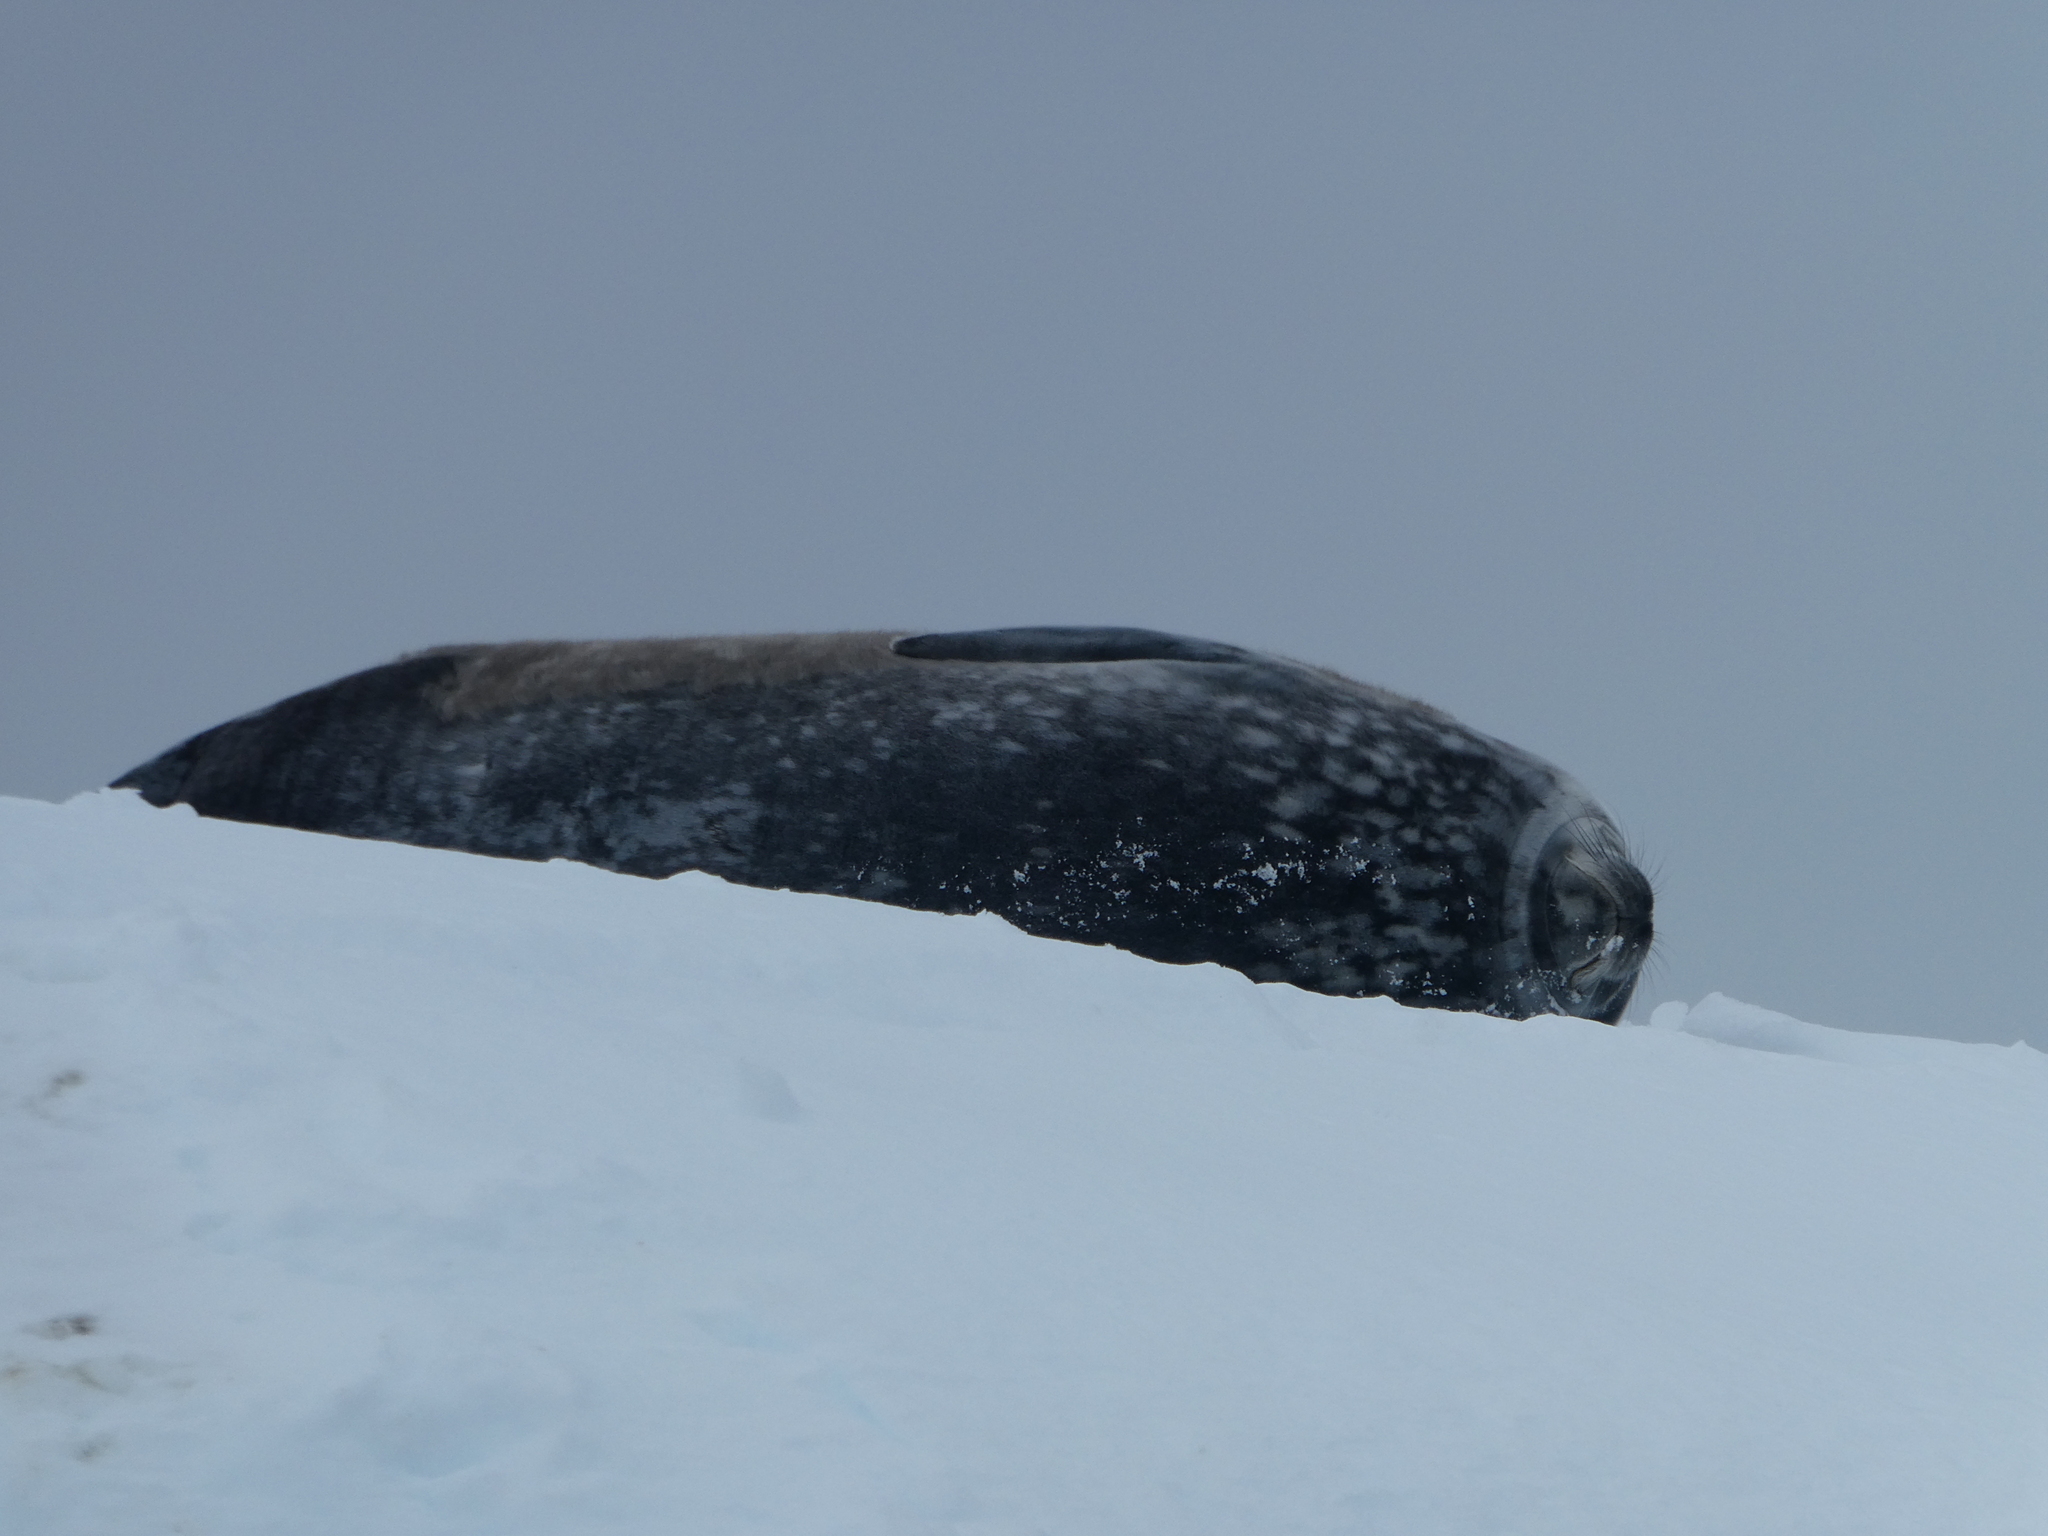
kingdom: Animalia
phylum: Chordata
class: Mammalia
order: Carnivora
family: Phocidae
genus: Leptonychotes
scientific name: Leptonychotes weddellii
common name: Weddell seal
